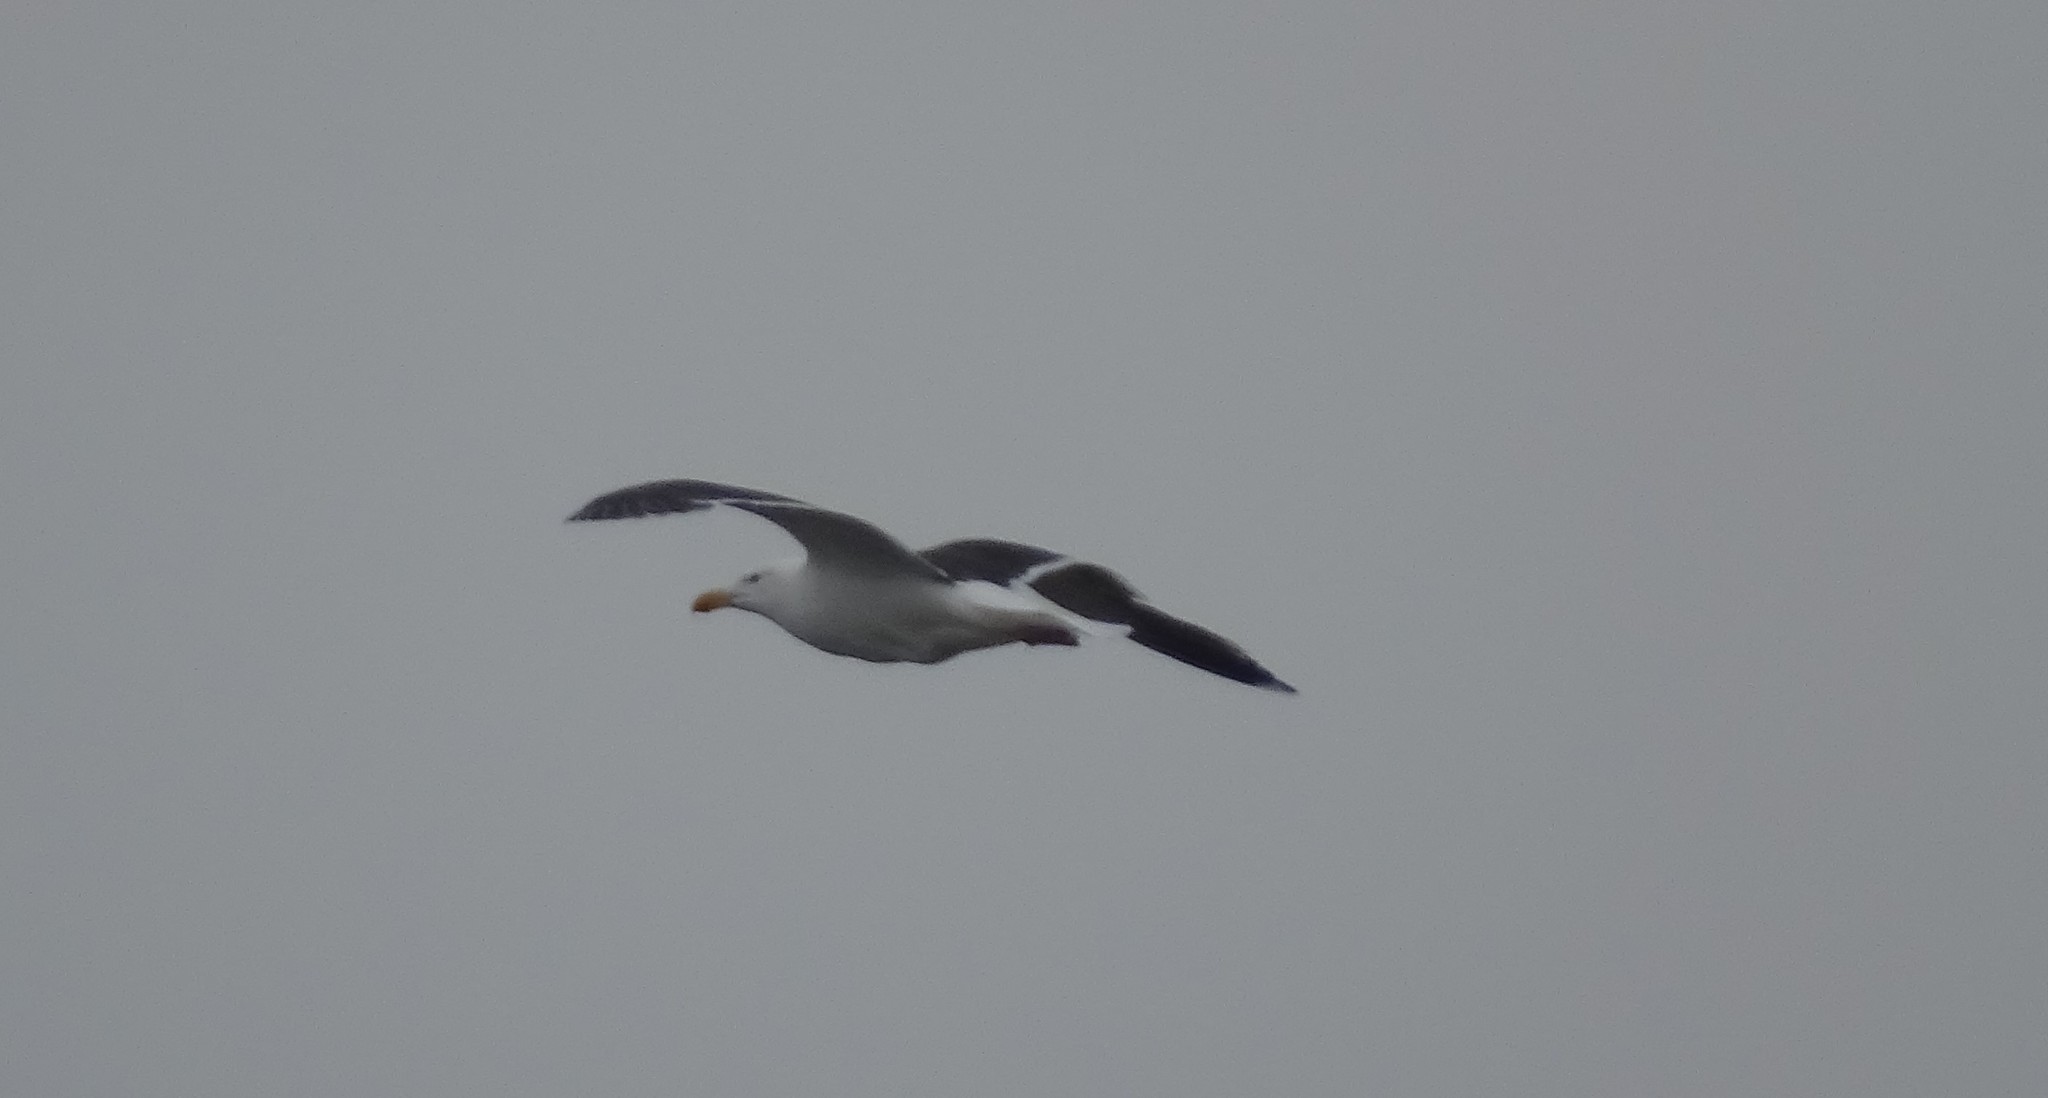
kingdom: Animalia
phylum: Chordata
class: Aves
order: Charadriiformes
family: Laridae
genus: Larus
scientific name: Larus marinus
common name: Great black-backed gull
